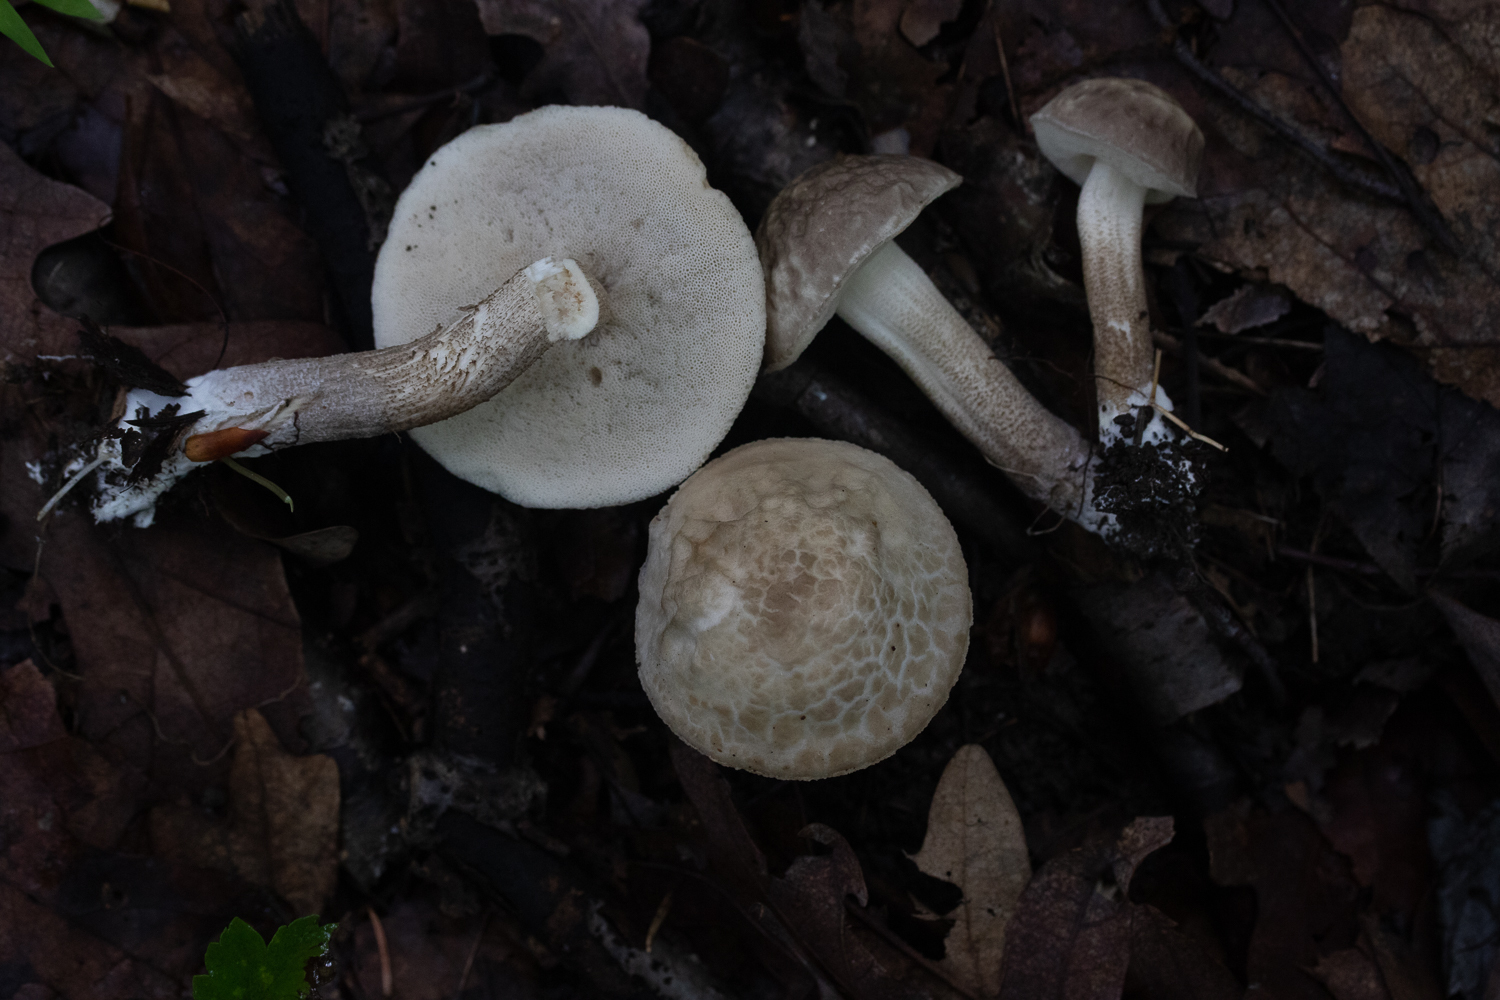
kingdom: Fungi
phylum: Basidiomycota
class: Agaricomycetes
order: Boletales
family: Boletaceae
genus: Leccinellum
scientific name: Leccinellum albellum
